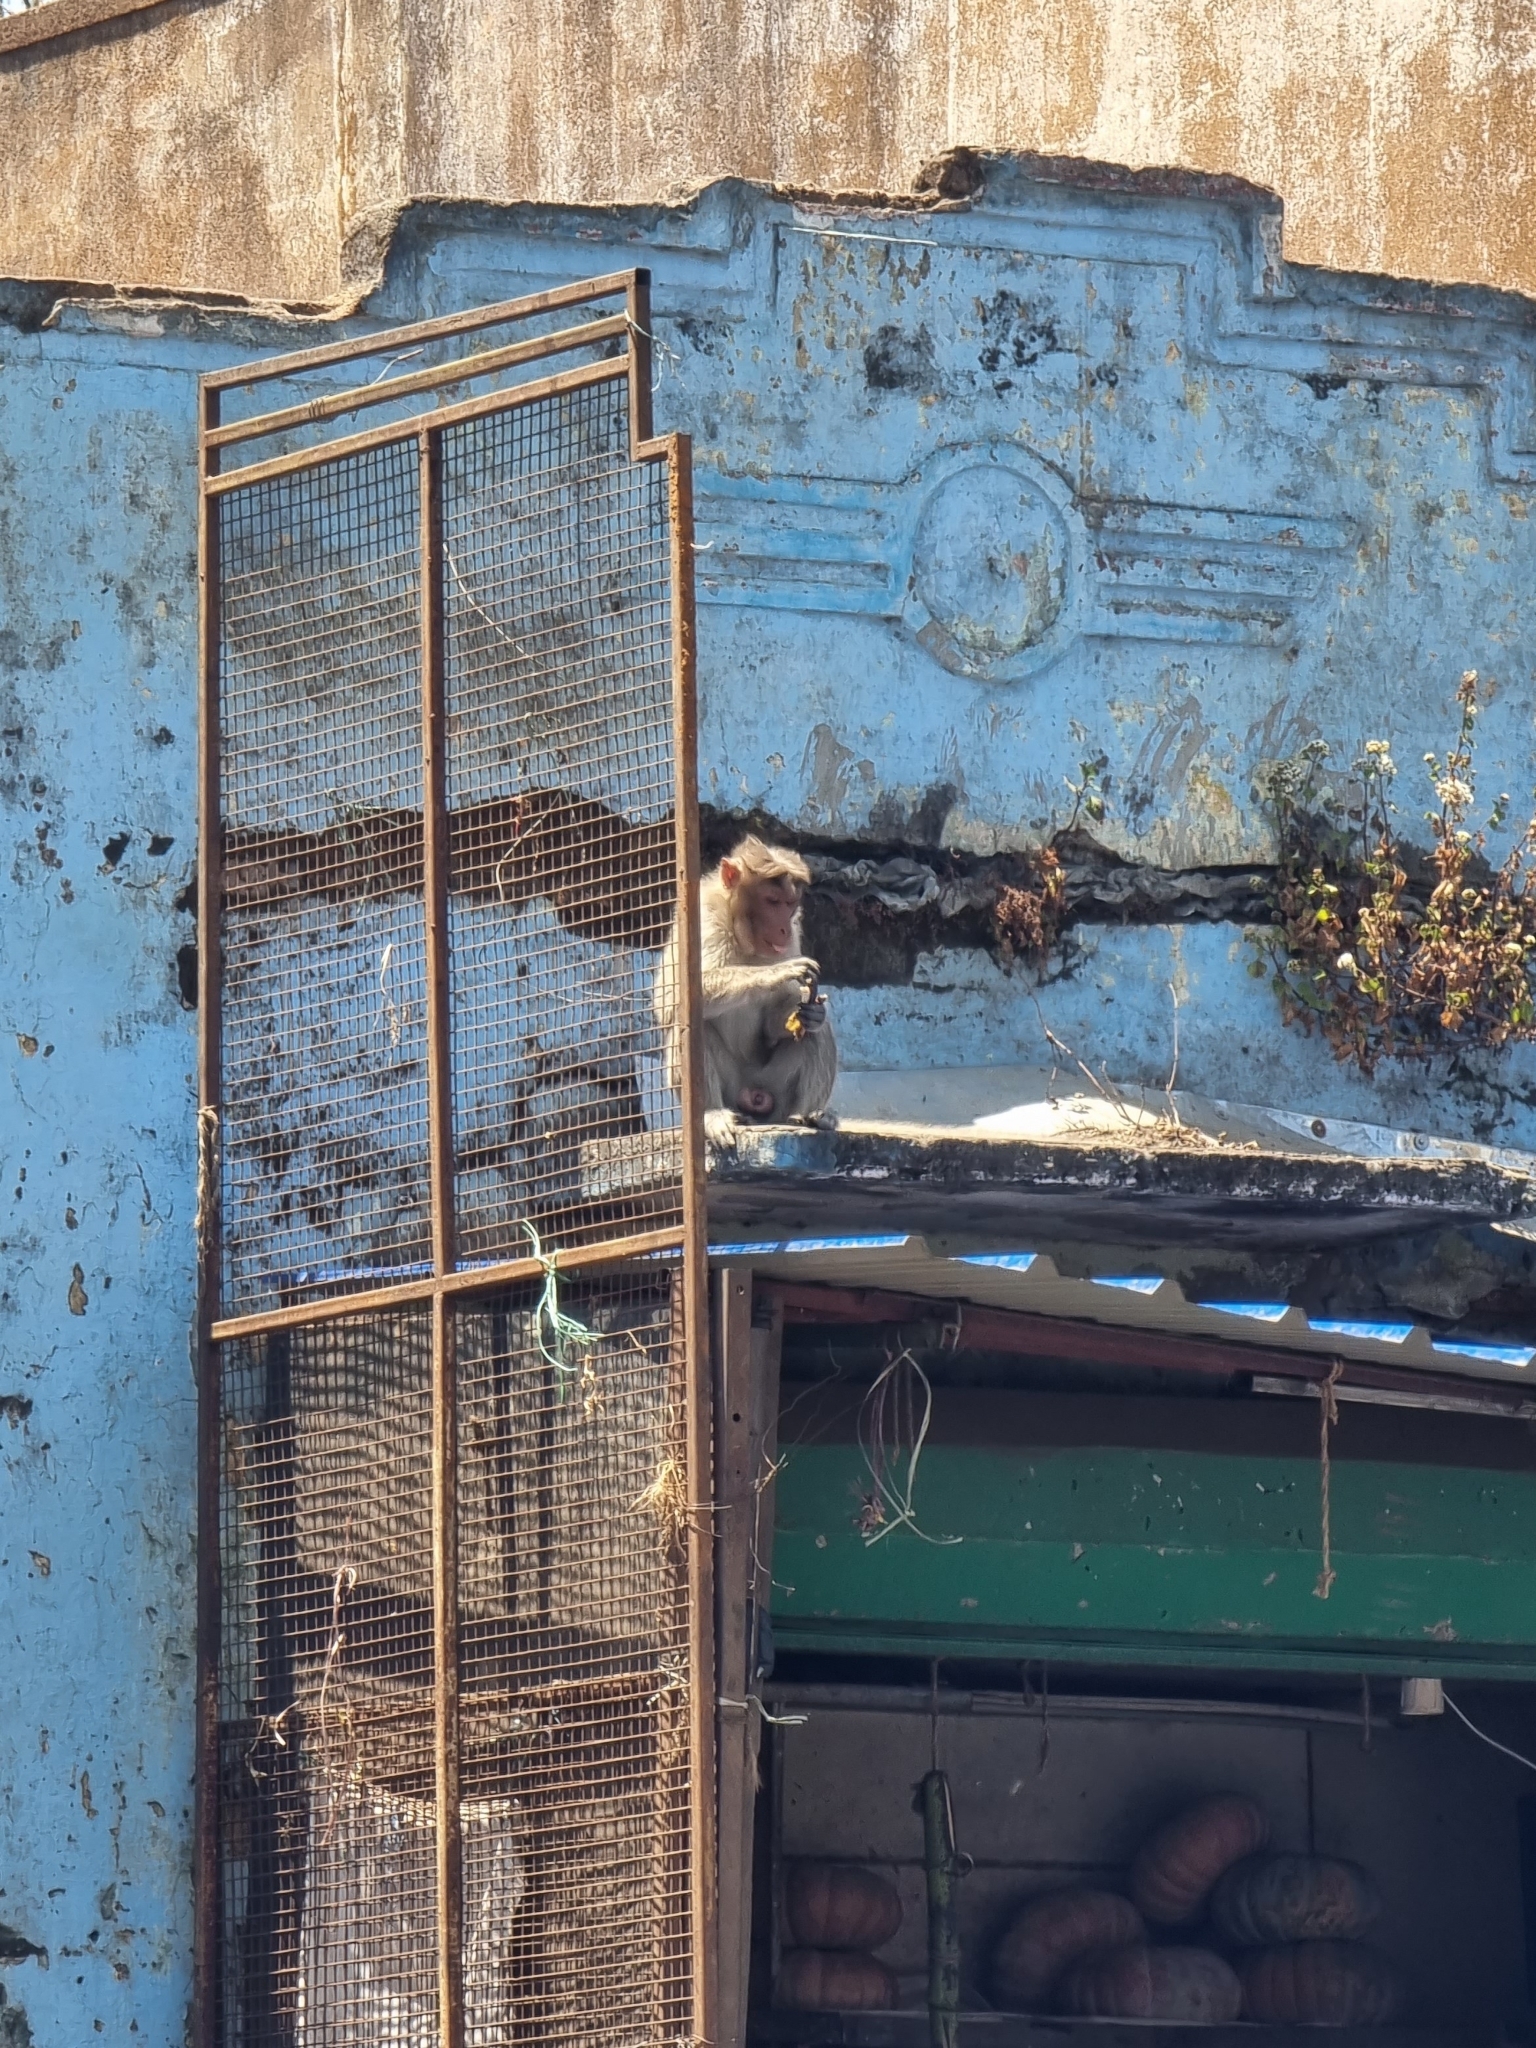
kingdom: Animalia
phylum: Chordata
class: Mammalia
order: Primates
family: Cercopithecidae
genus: Macaca
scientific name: Macaca radiata
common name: Bonnet macaque
